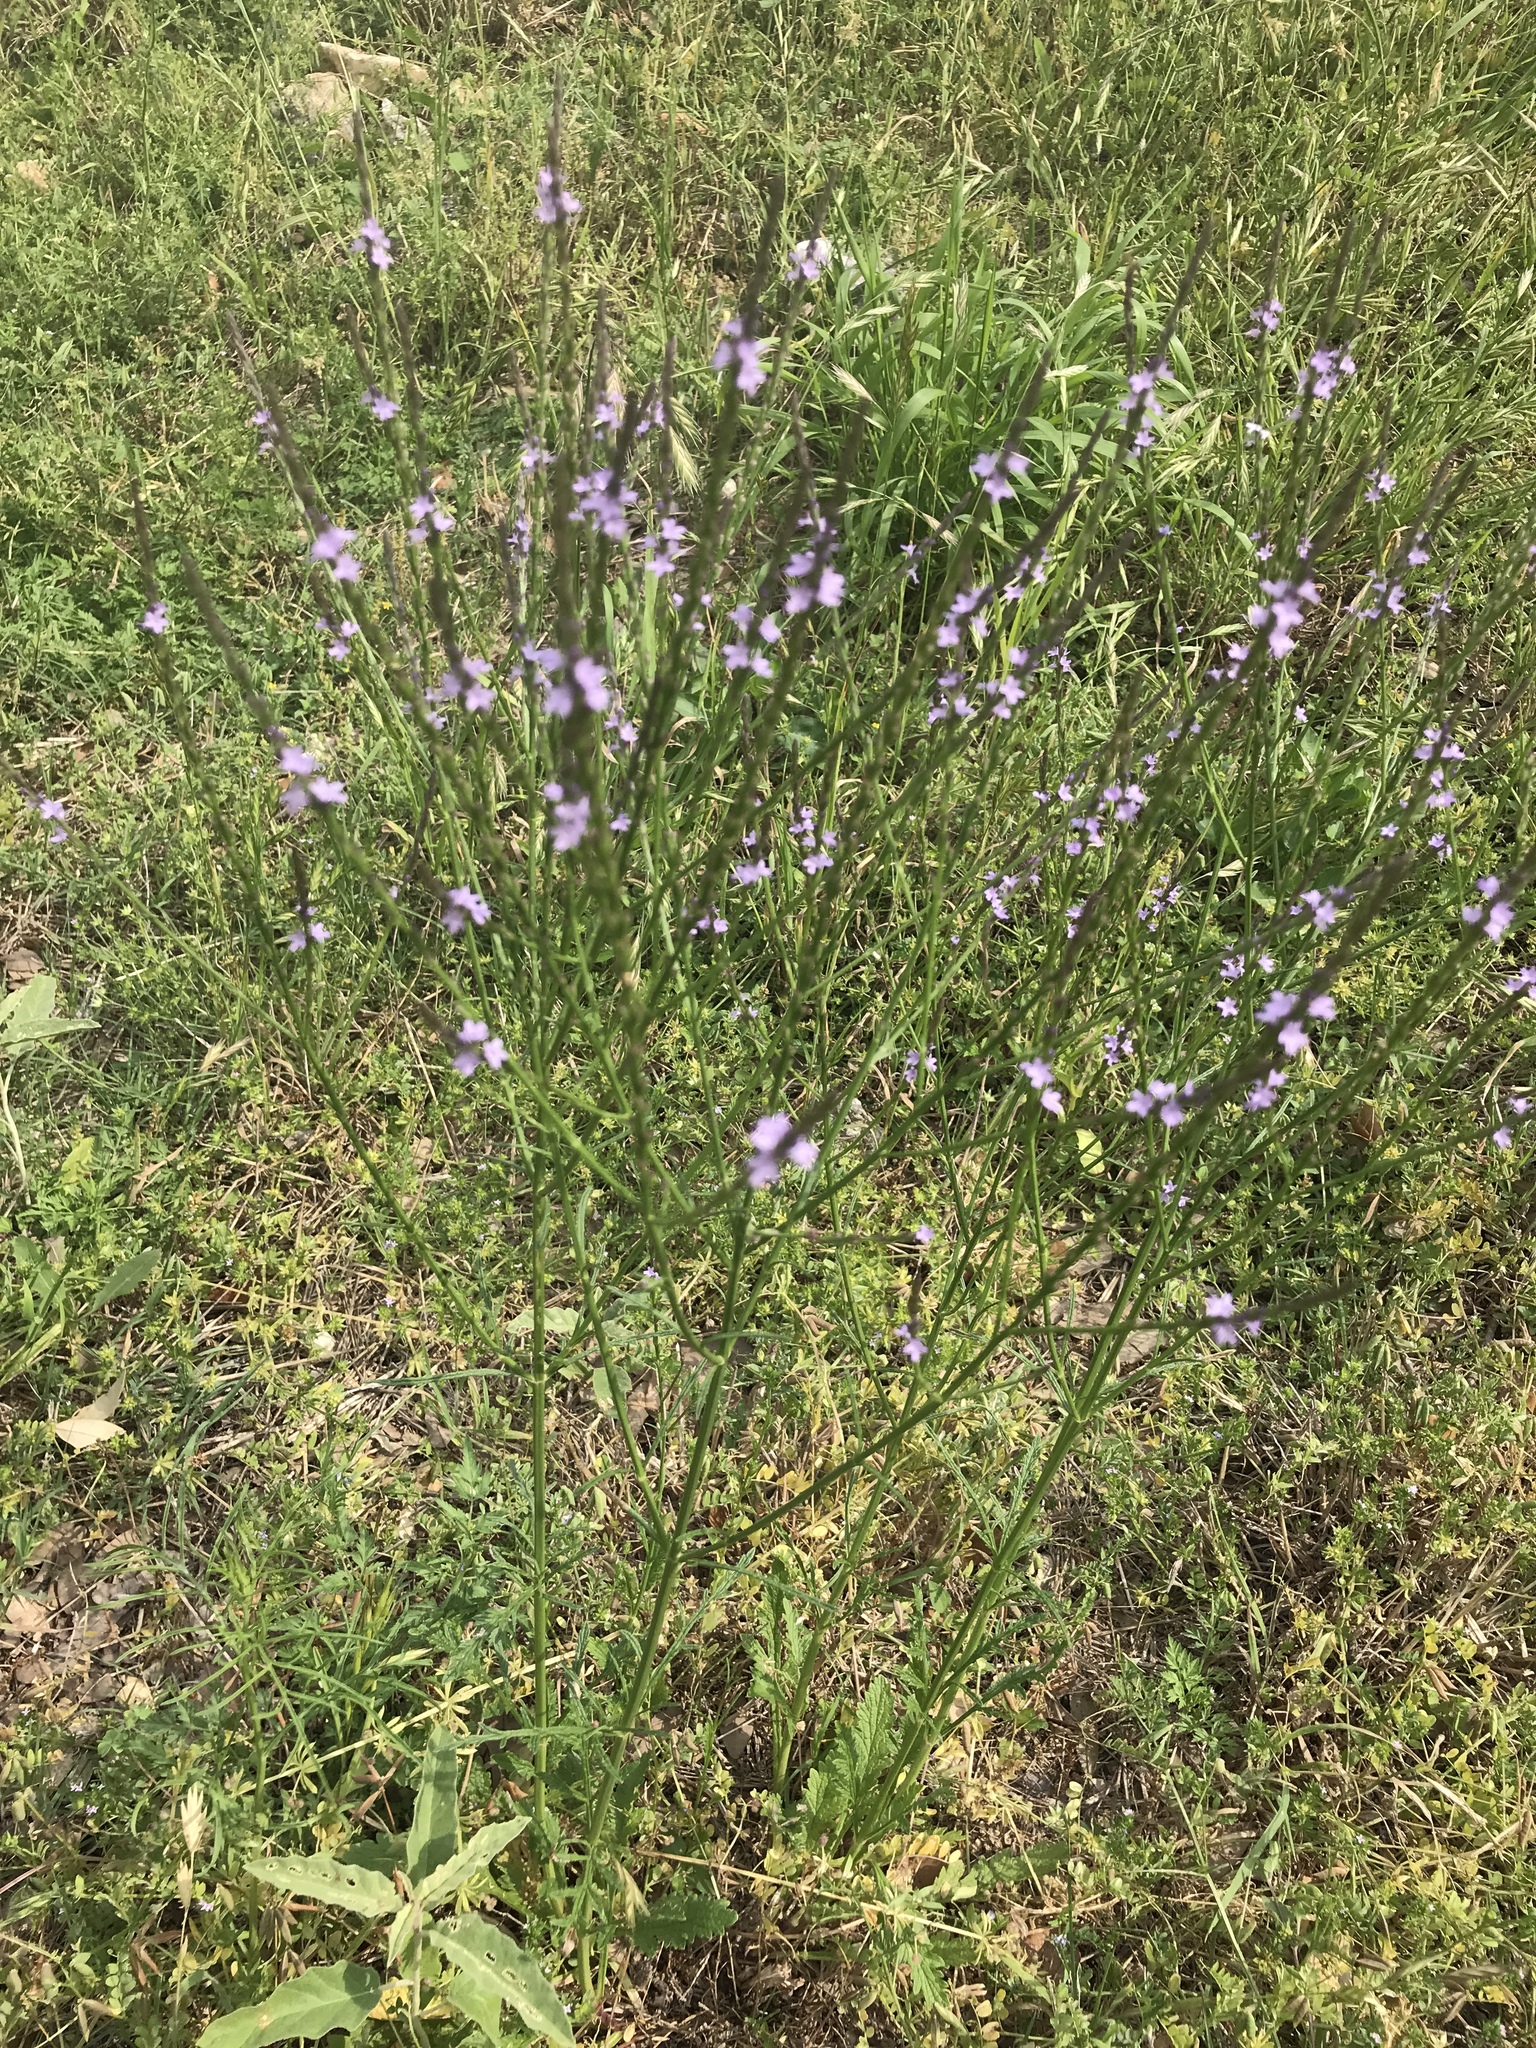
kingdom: Plantae
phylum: Tracheophyta
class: Magnoliopsida
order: Lamiales
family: Verbenaceae
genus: Verbena
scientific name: Verbena halei
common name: Texas vervain
